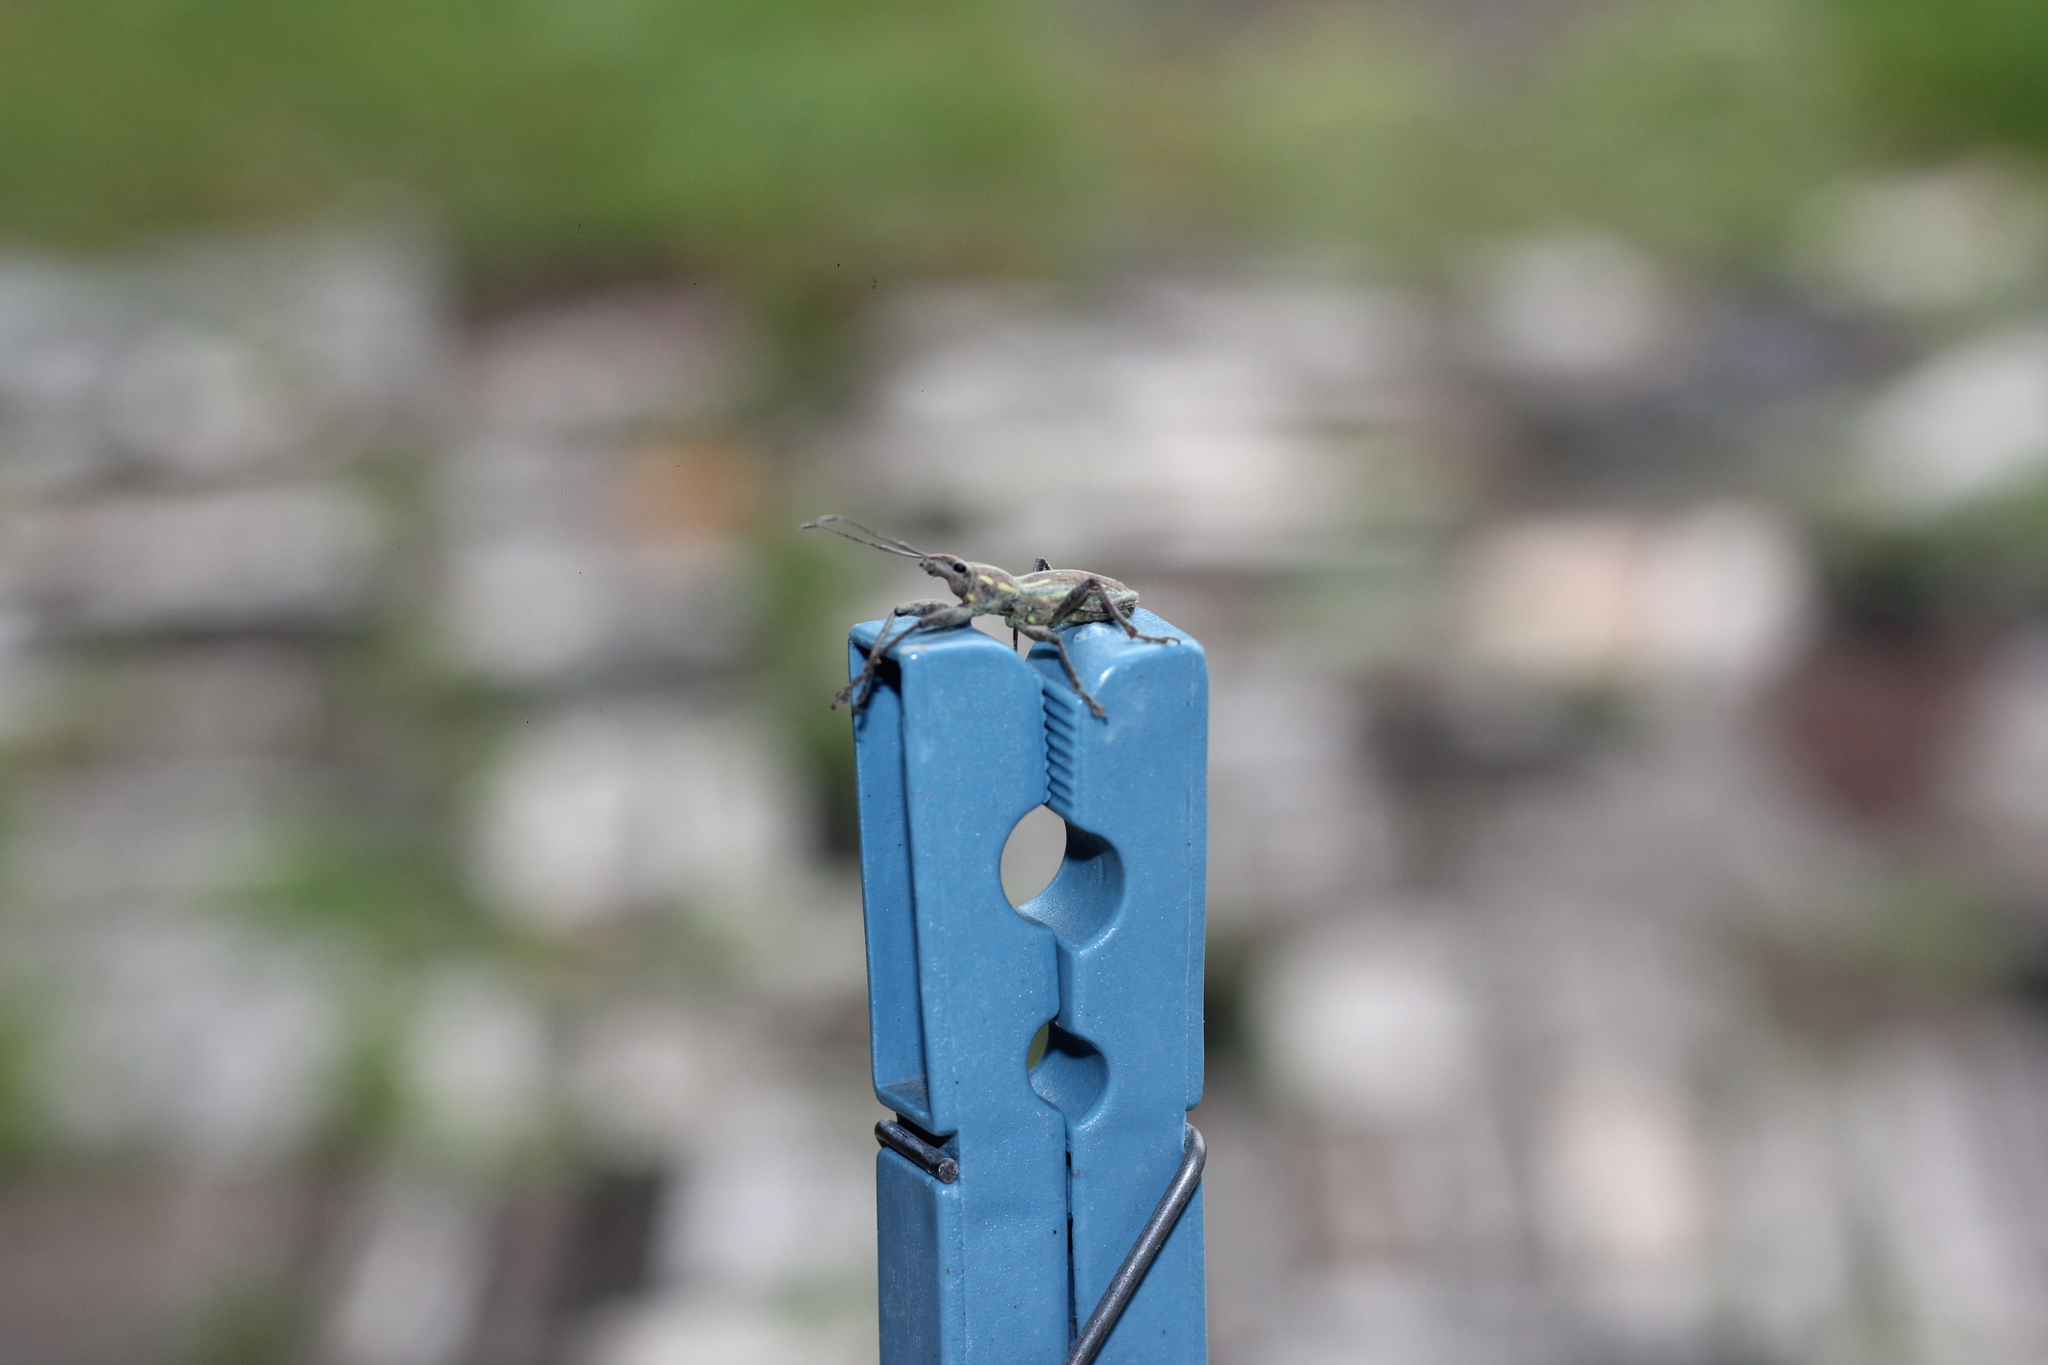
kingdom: Animalia
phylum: Arthropoda
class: Insecta
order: Coleoptera
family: Curculionidae
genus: Naupactus
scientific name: Naupactus xanthographus
